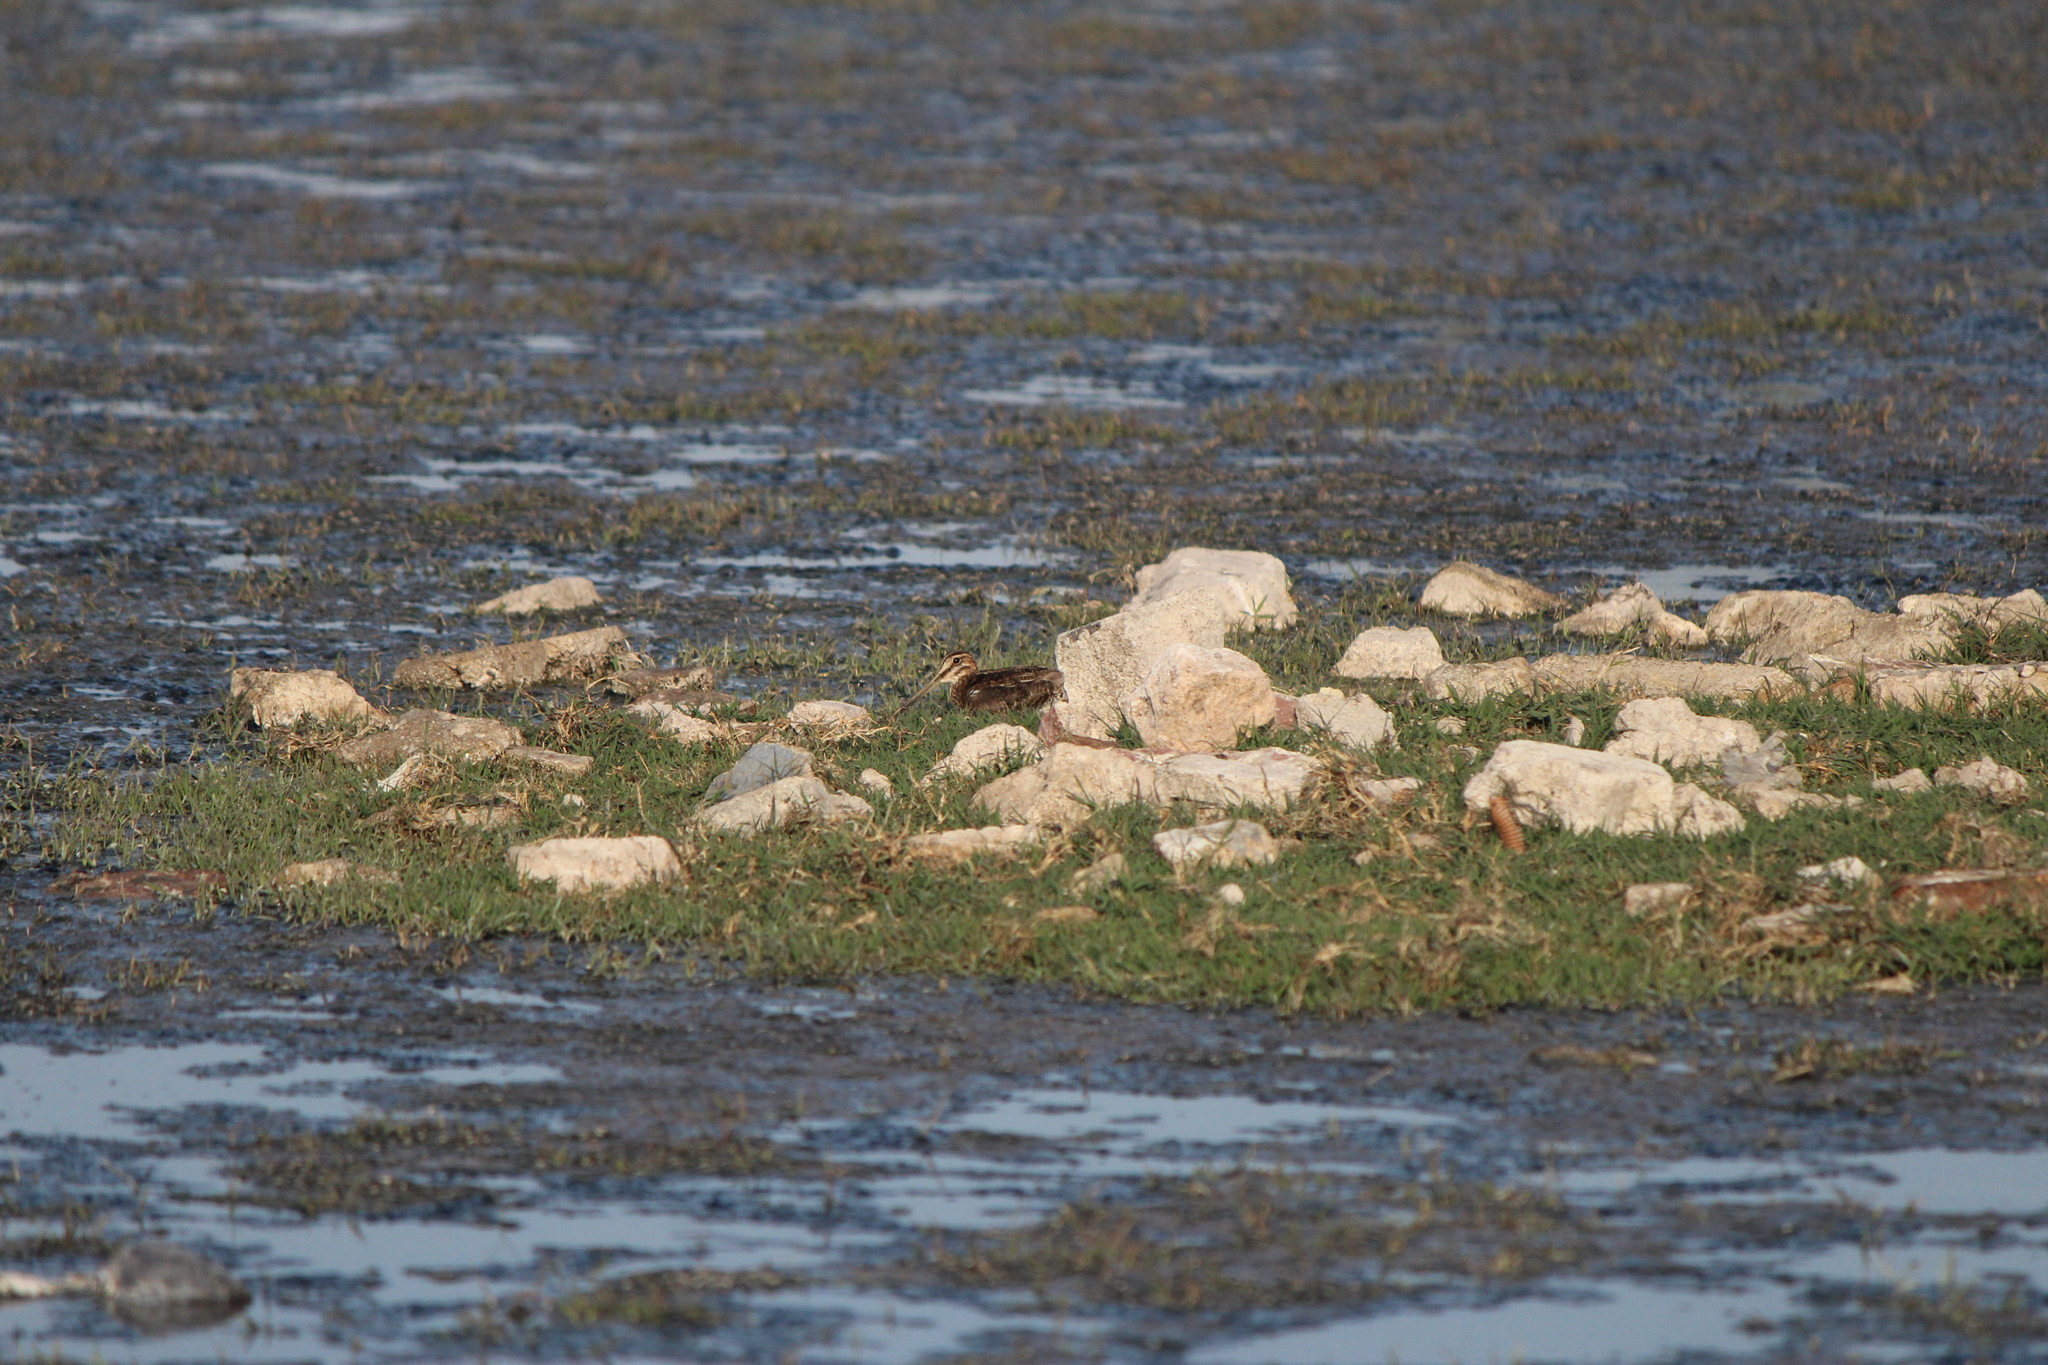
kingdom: Animalia
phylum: Chordata
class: Aves
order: Charadriiformes
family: Scolopacidae
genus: Gallinago
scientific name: Gallinago delicata
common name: Wilson's snipe
